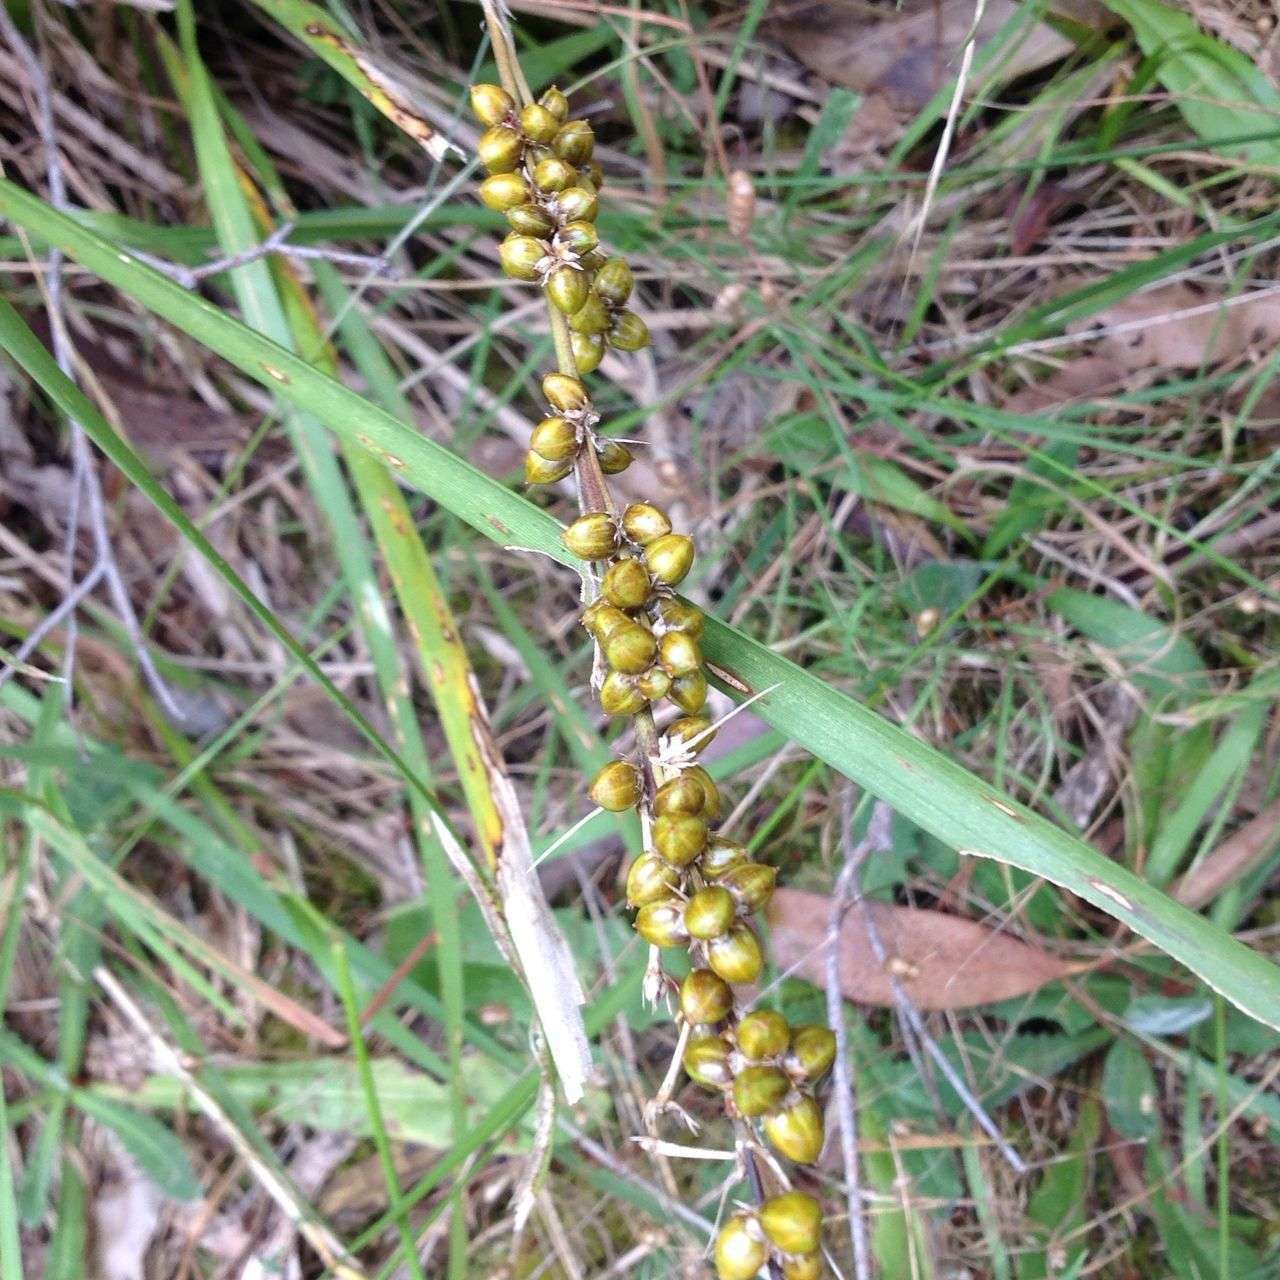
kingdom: Plantae
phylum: Tracheophyta
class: Liliopsida
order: Asparagales
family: Asparagaceae
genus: Lomandra
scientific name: Lomandra longifolia
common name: Longleaf mat-rush
